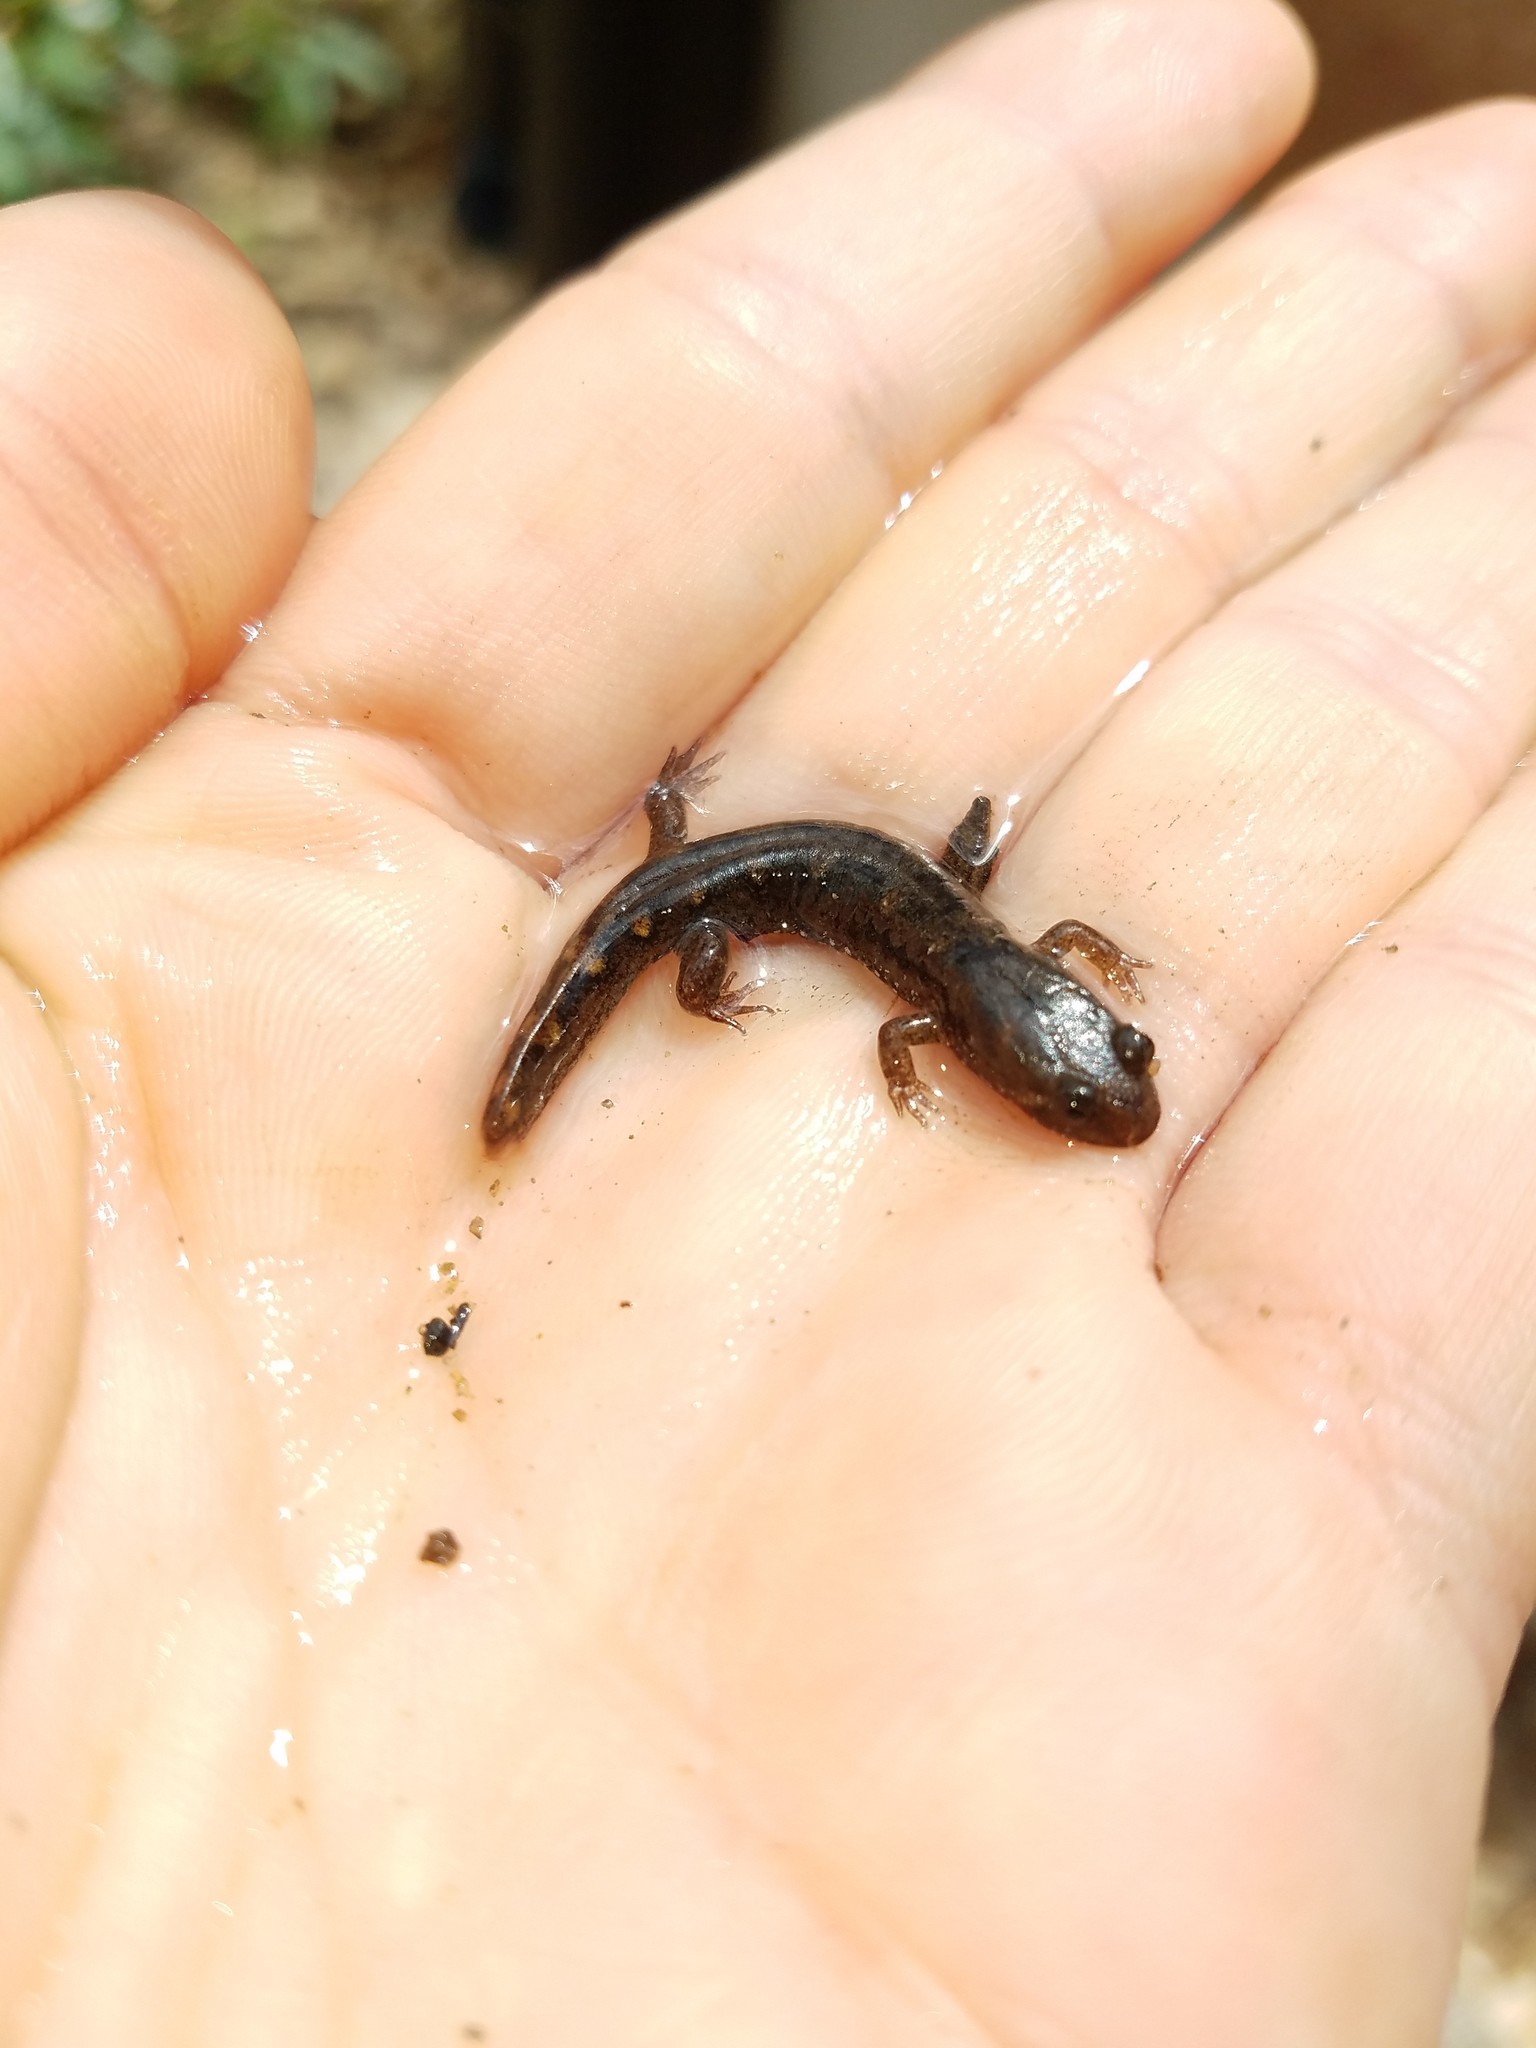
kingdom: Animalia
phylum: Chordata
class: Amphibia
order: Caudata
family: Plethodontidae
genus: Desmognathus
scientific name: Desmognathus monticola
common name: Seal salamander
